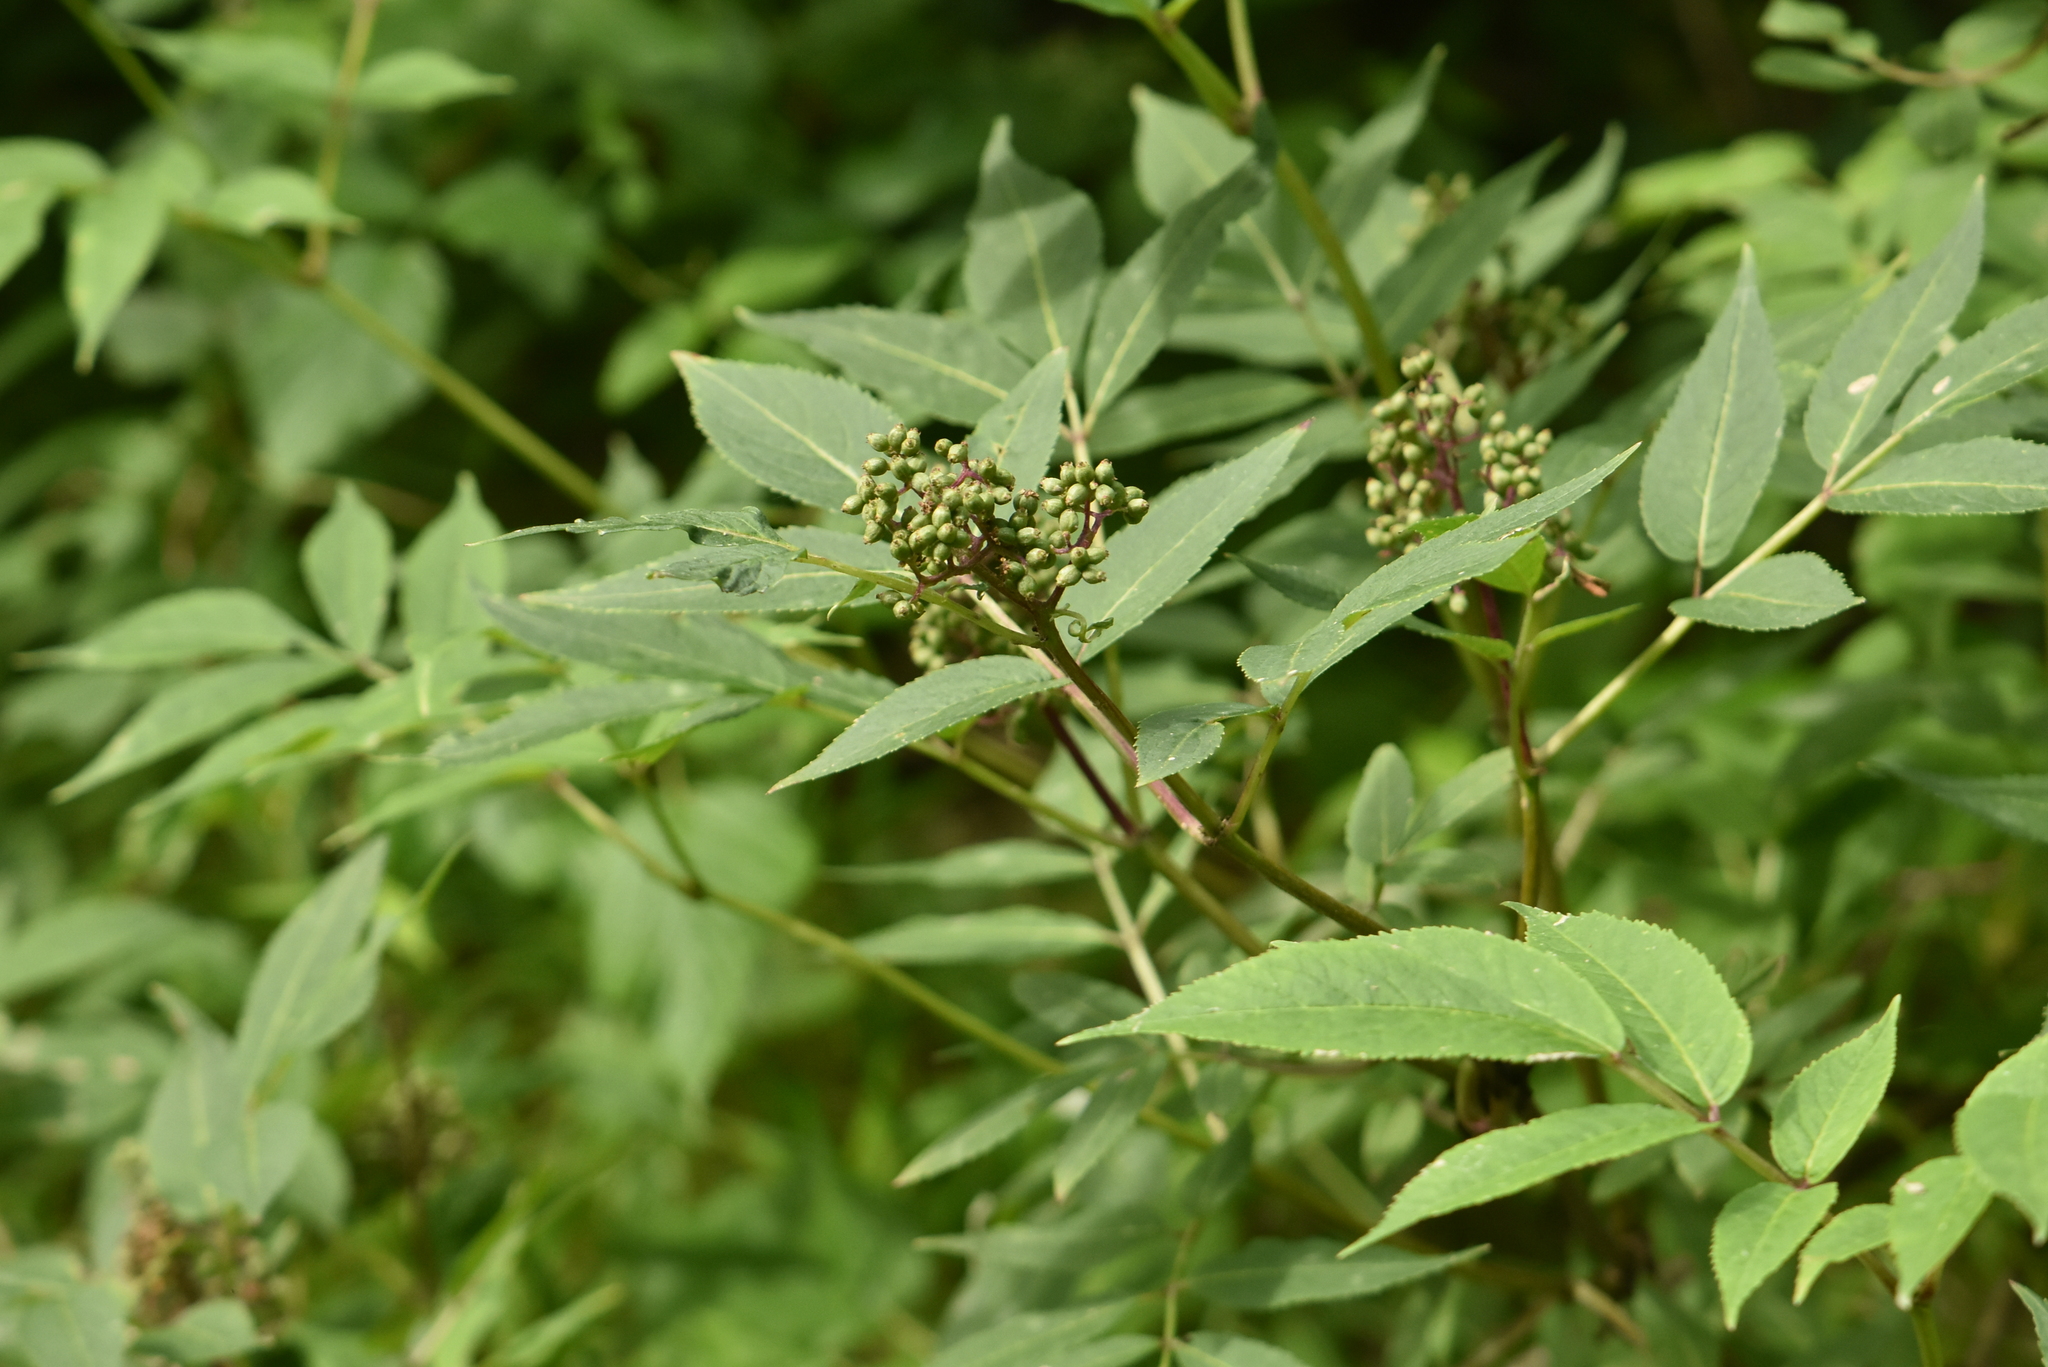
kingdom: Plantae
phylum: Tracheophyta
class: Magnoliopsida
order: Dipsacales
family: Viburnaceae
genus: Sambucus
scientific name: Sambucus racemosa
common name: Red-berried elder
